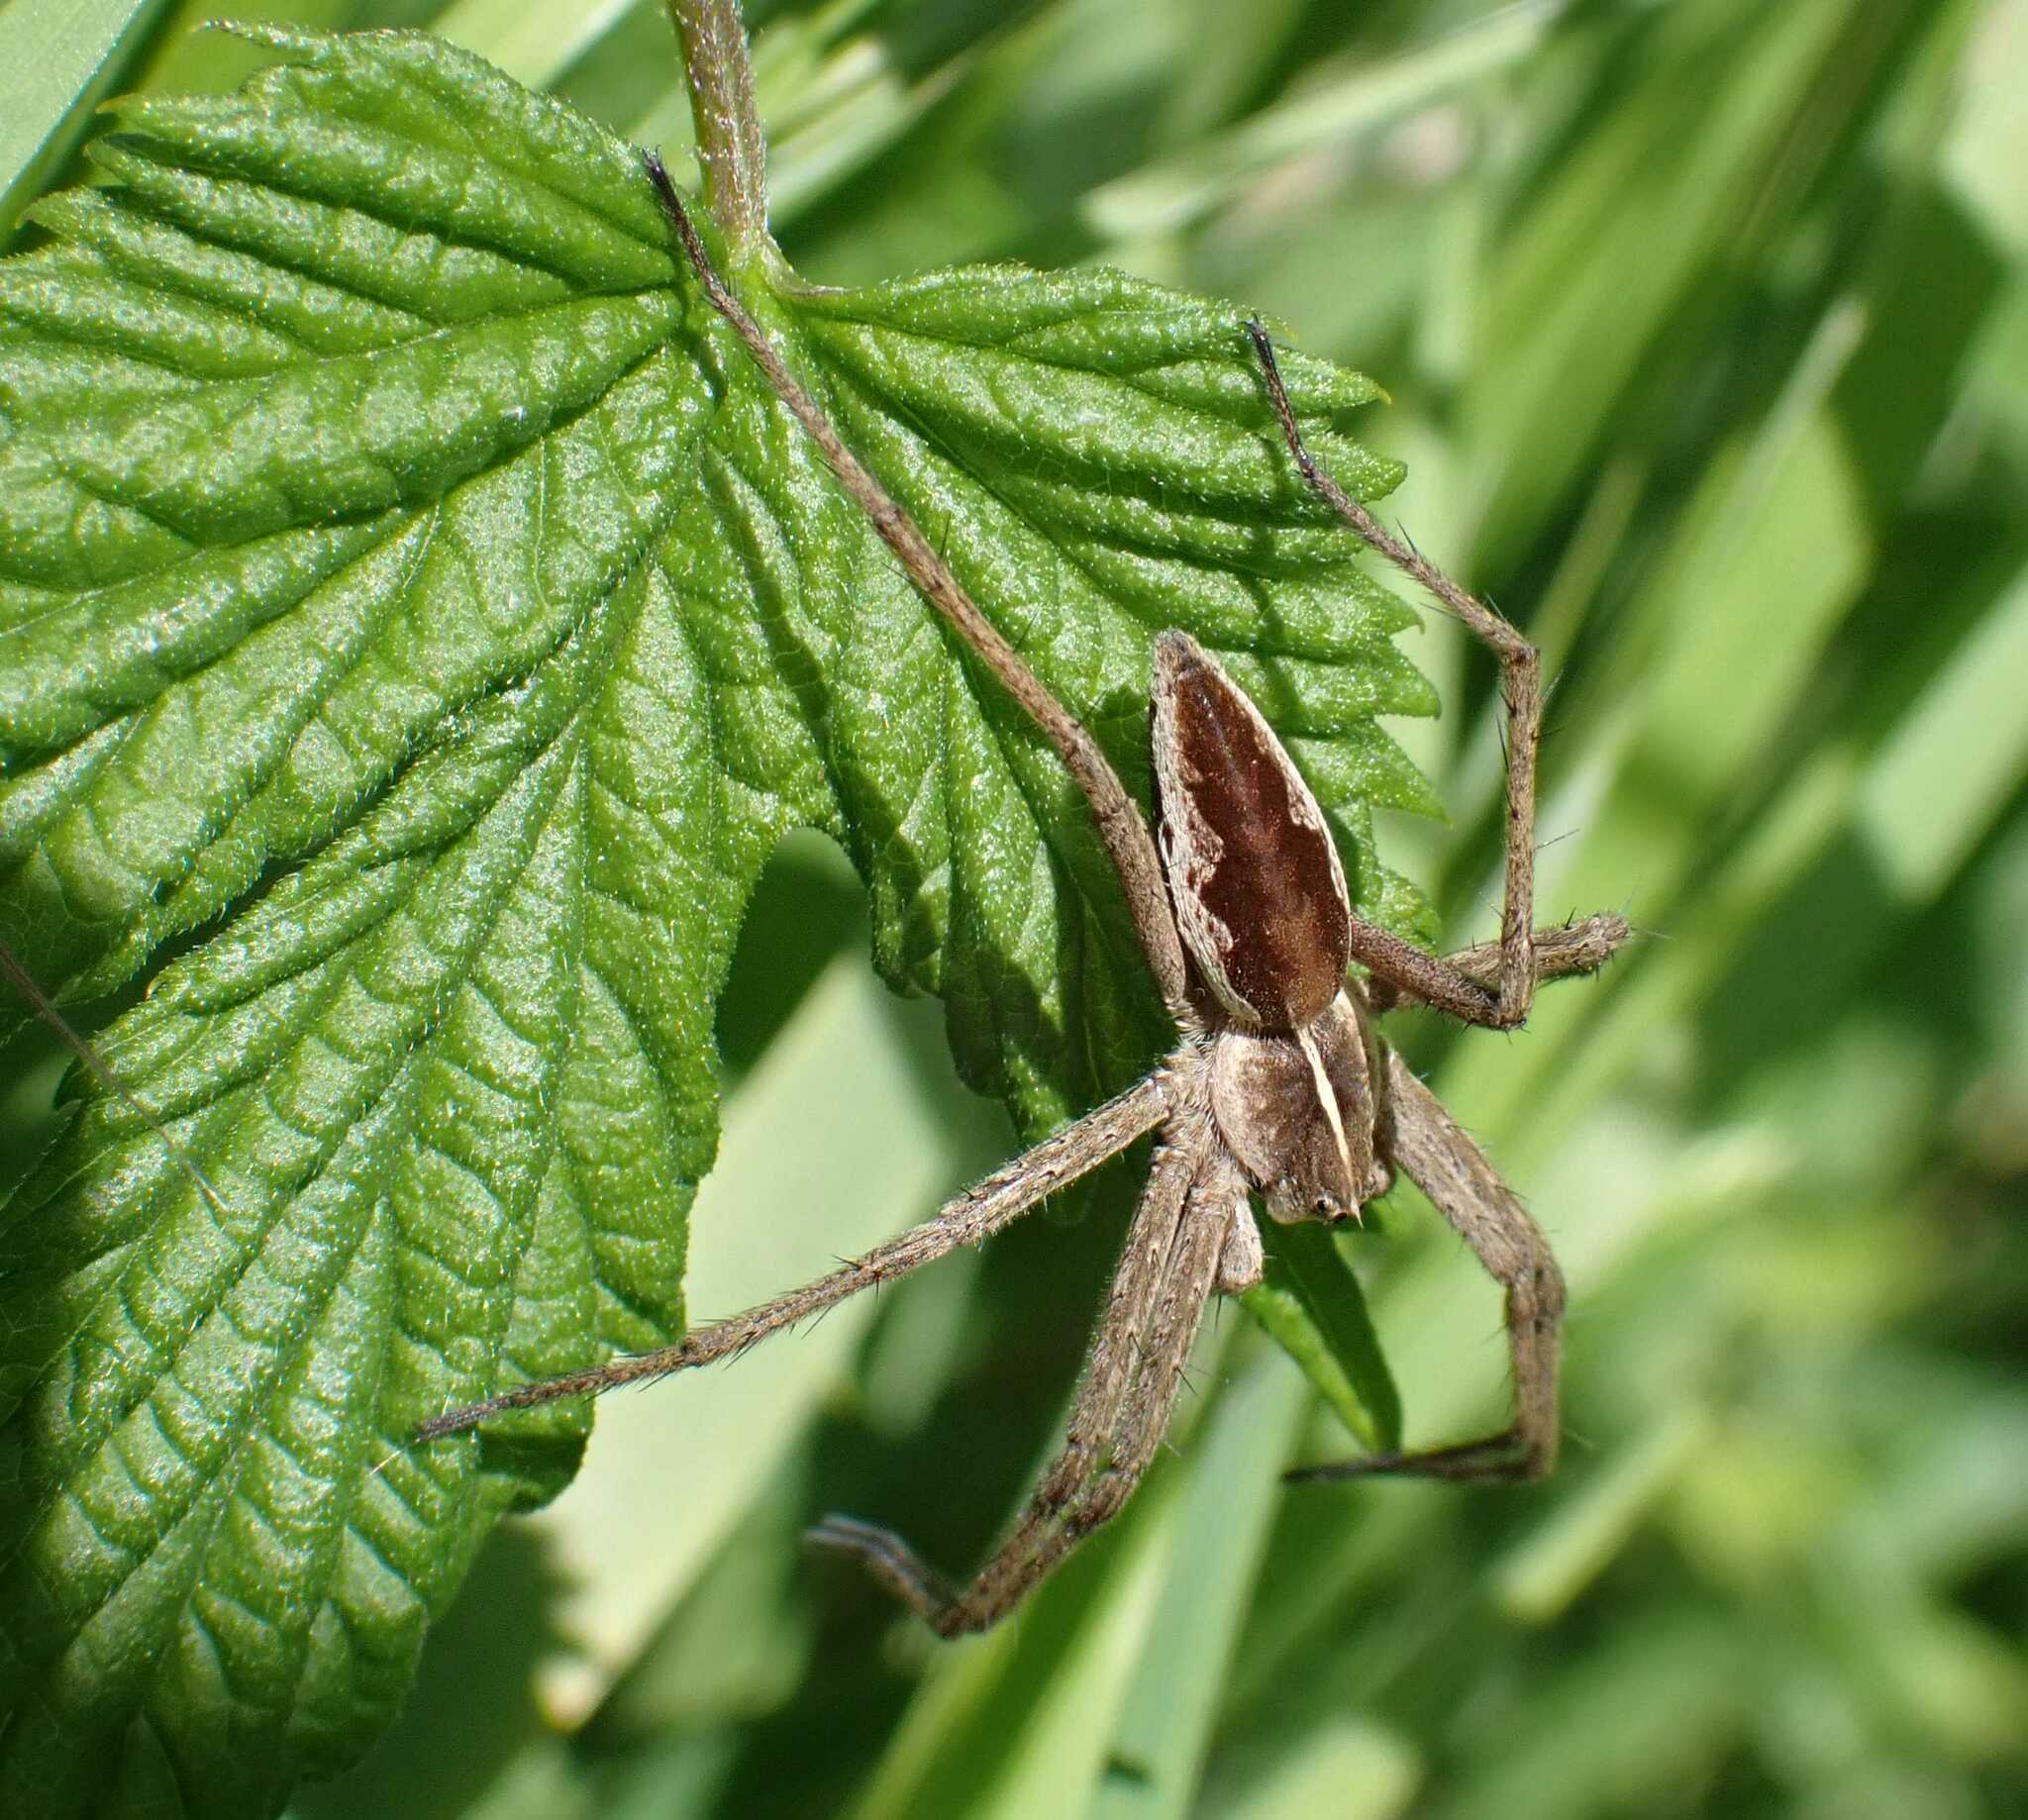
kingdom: Animalia
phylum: Arthropoda
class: Arachnida
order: Araneae
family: Pisauridae
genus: Pisaura
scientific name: Pisaura mirabilis
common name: Tent spider
